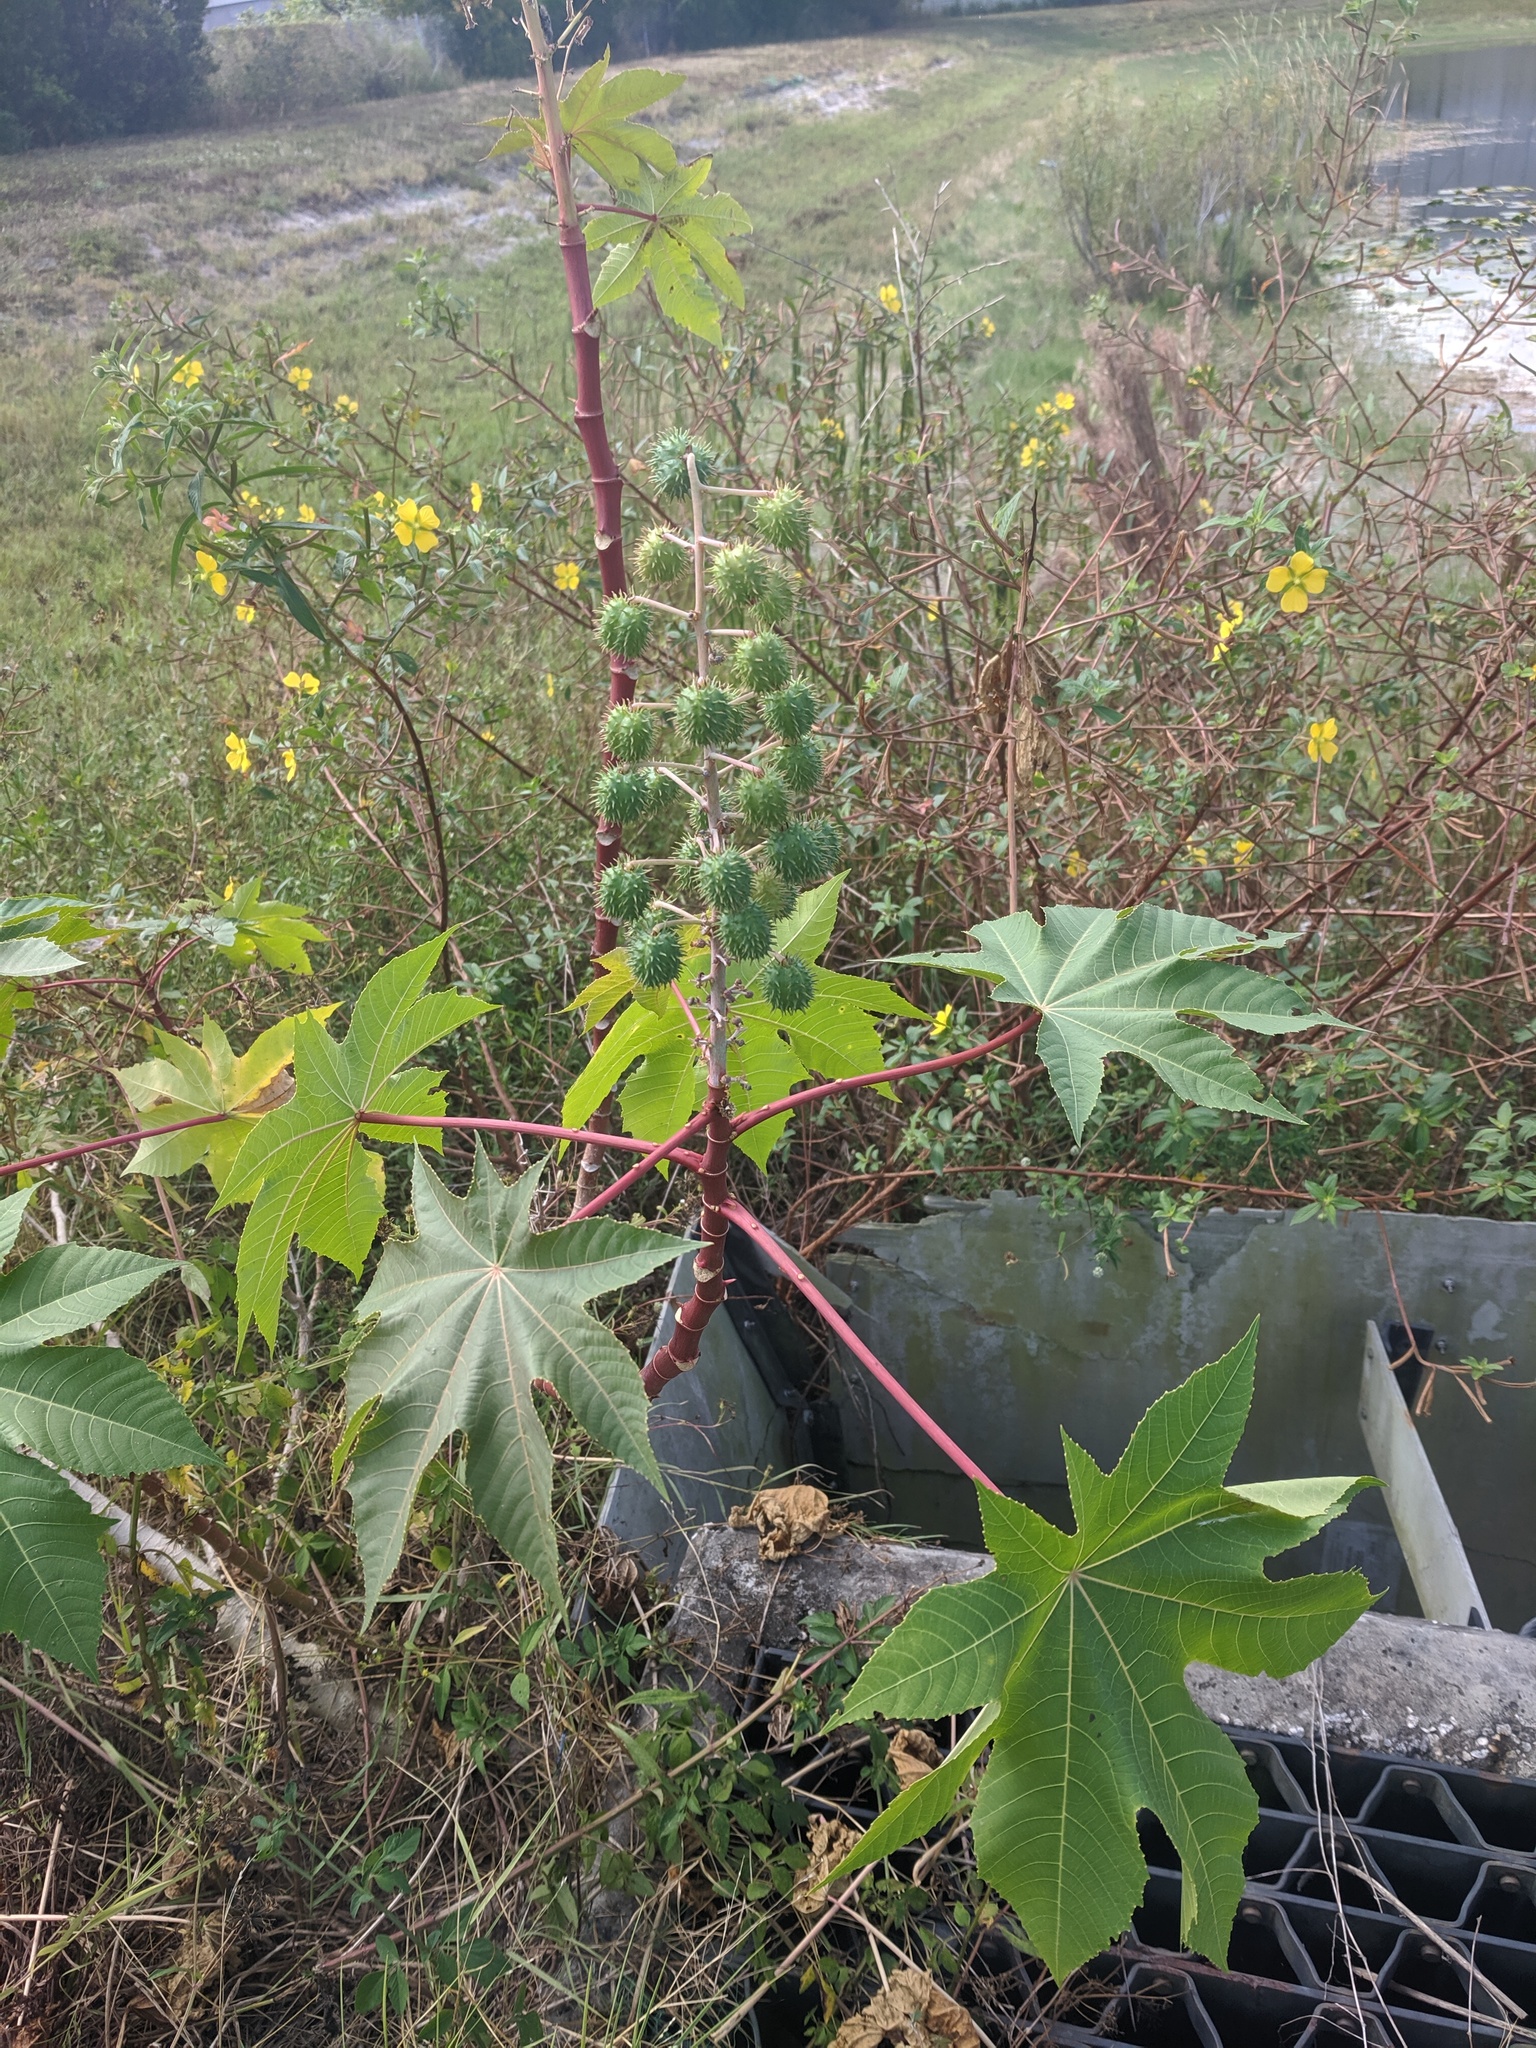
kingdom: Plantae
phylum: Tracheophyta
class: Magnoliopsida
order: Malpighiales
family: Euphorbiaceae
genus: Ricinus
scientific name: Ricinus communis
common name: Castor-oil-plant
